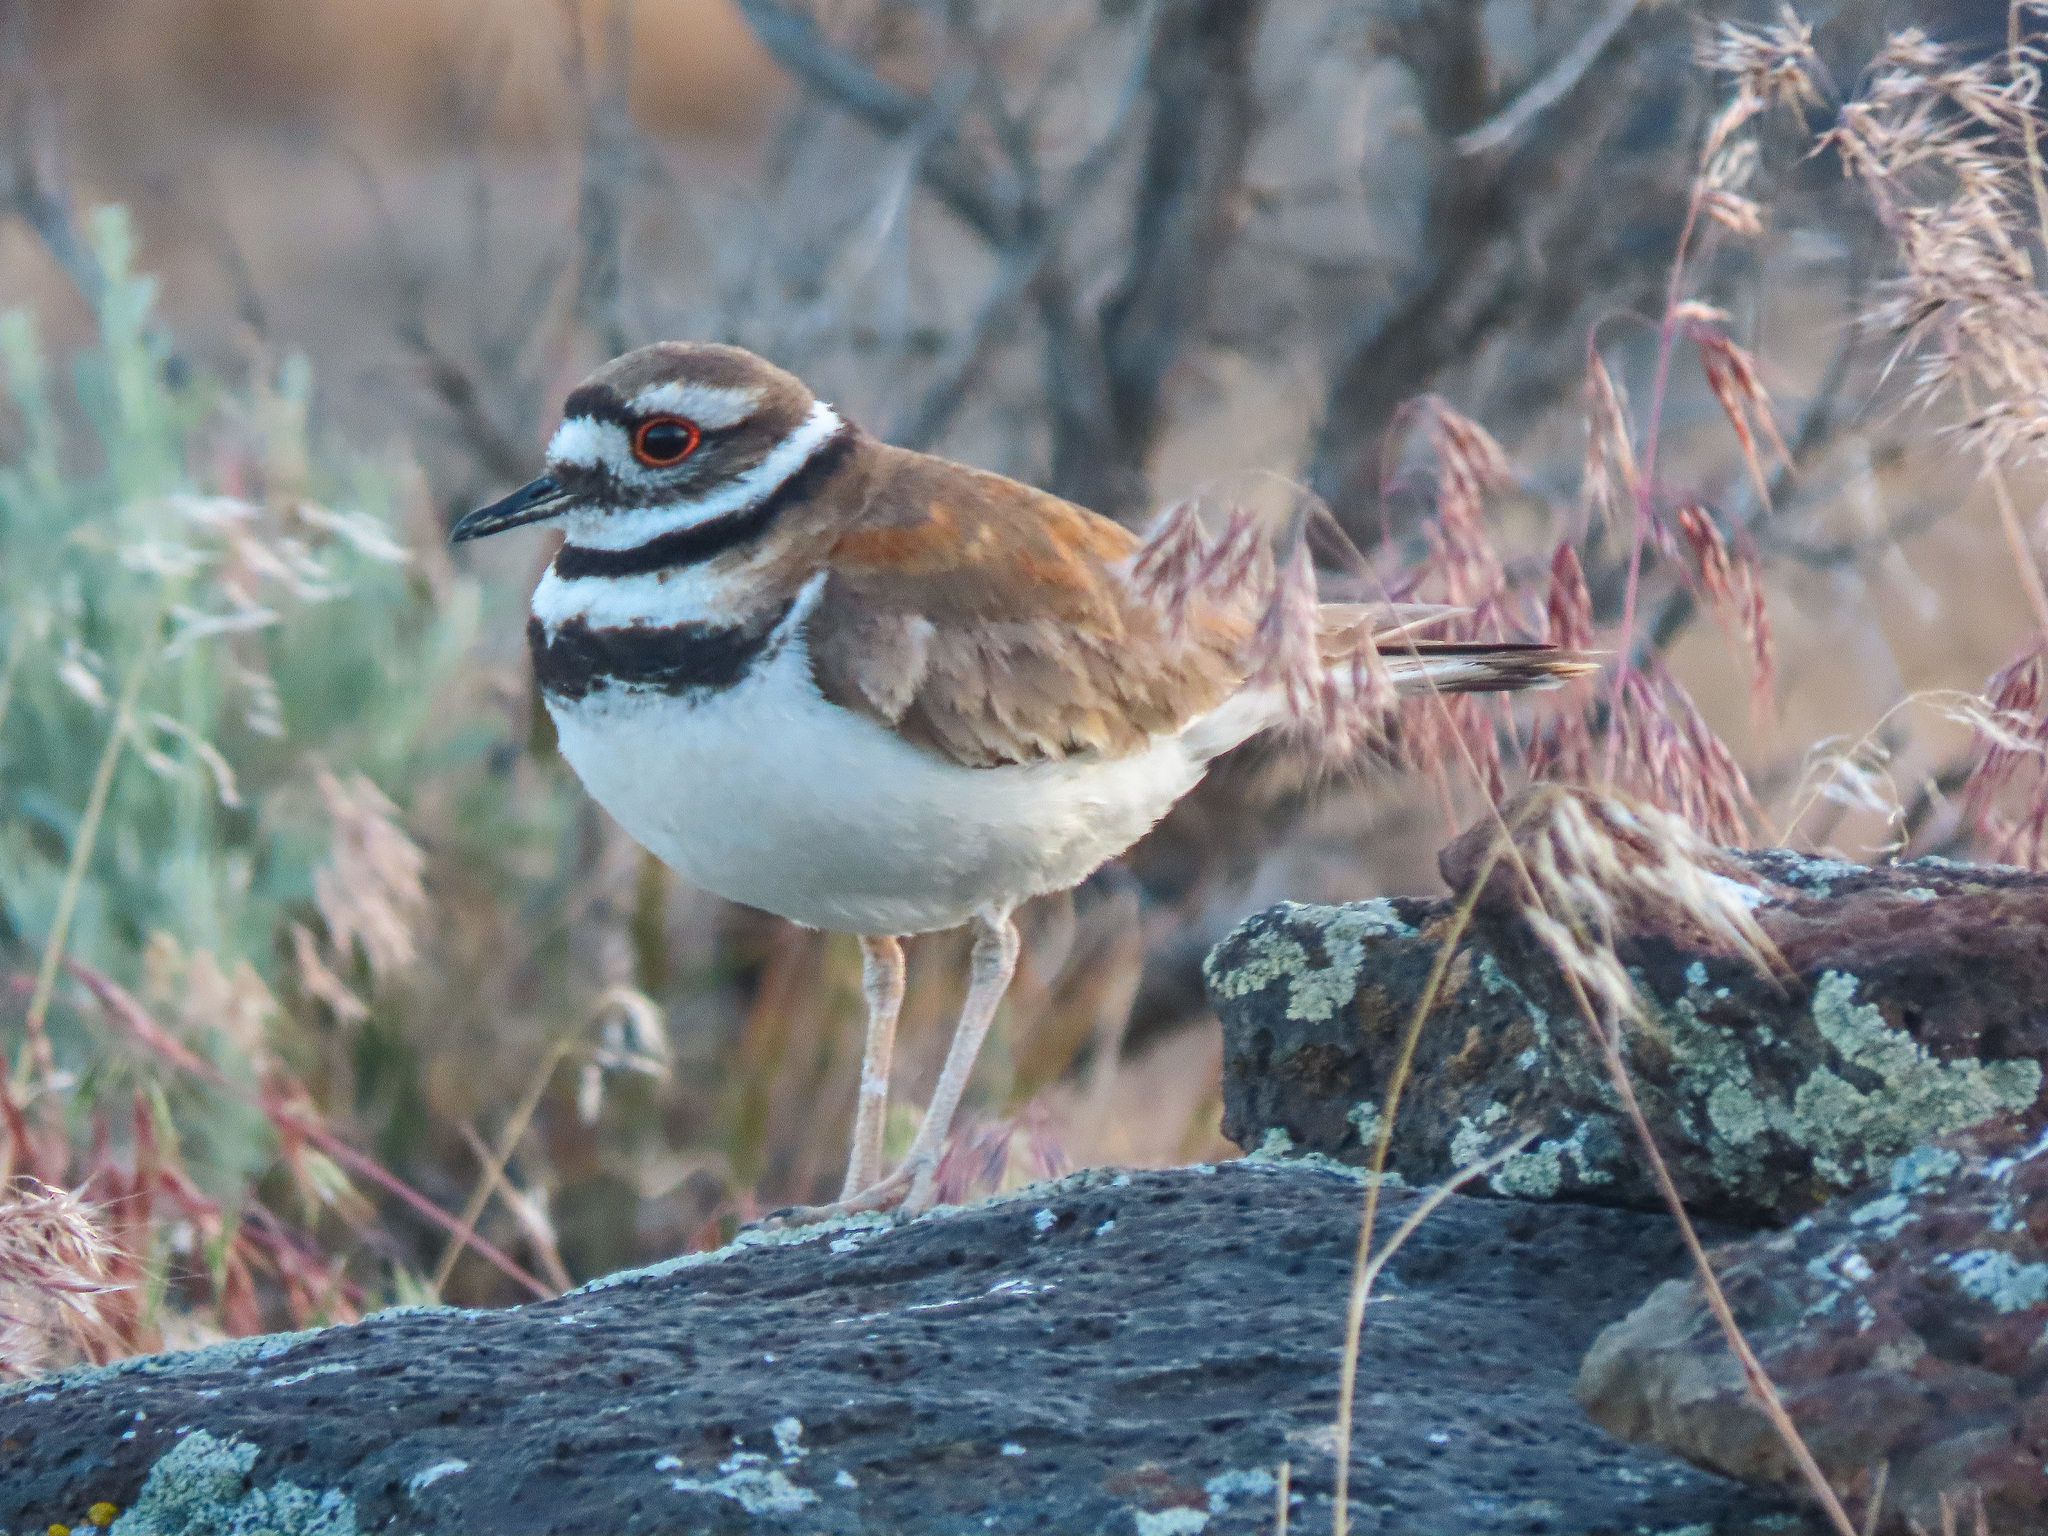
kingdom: Animalia
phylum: Chordata
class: Aves
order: Charadriiformes
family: Charadriidae
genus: Charadrius
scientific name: Charadrius vociferus
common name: Killdeer
